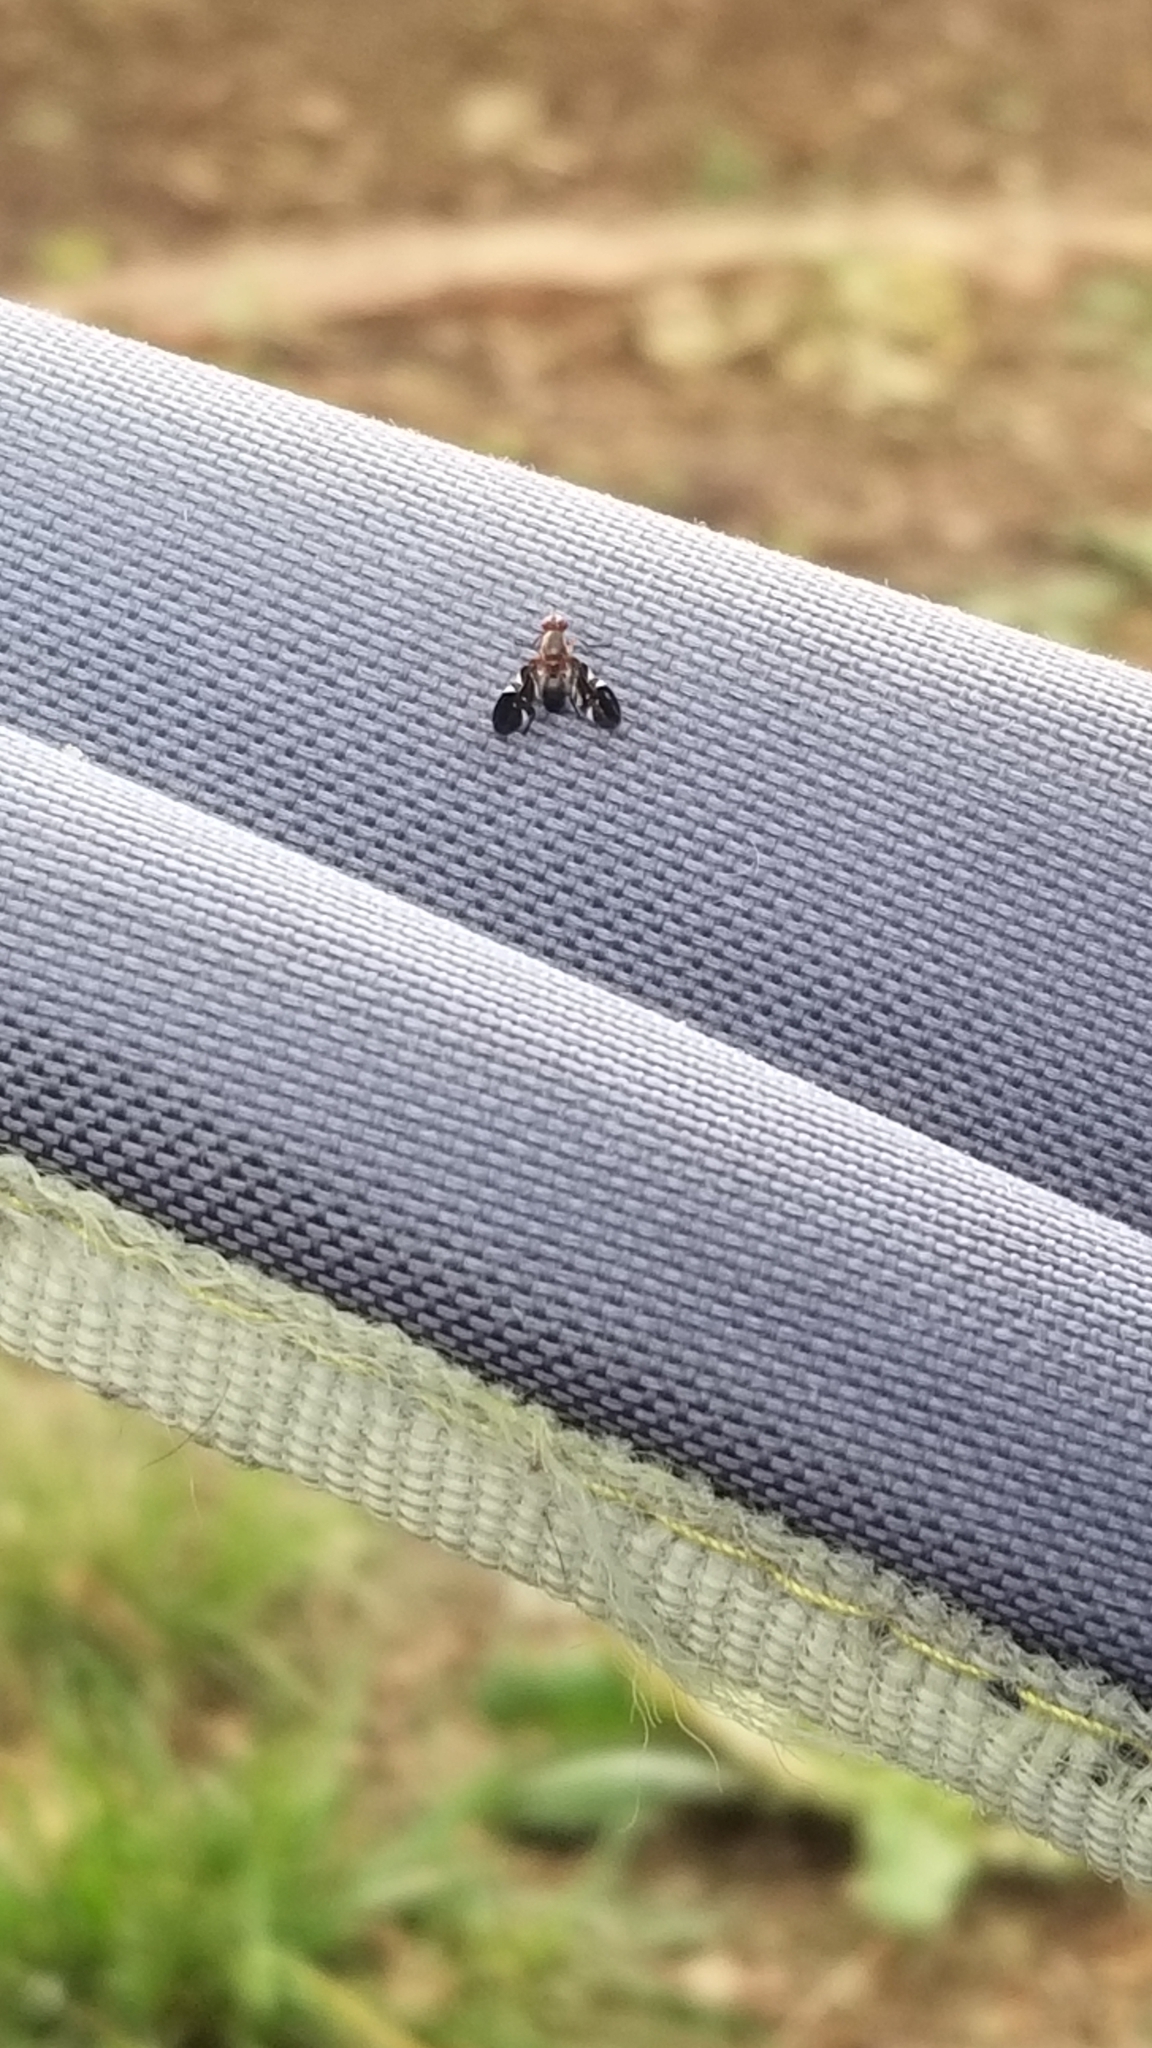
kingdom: Animalia
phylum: Arthropoda
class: Insecta
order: Diptera
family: Ulidiidae
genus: Delphinia
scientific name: Delphinia picta
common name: Common picture-winged fly
